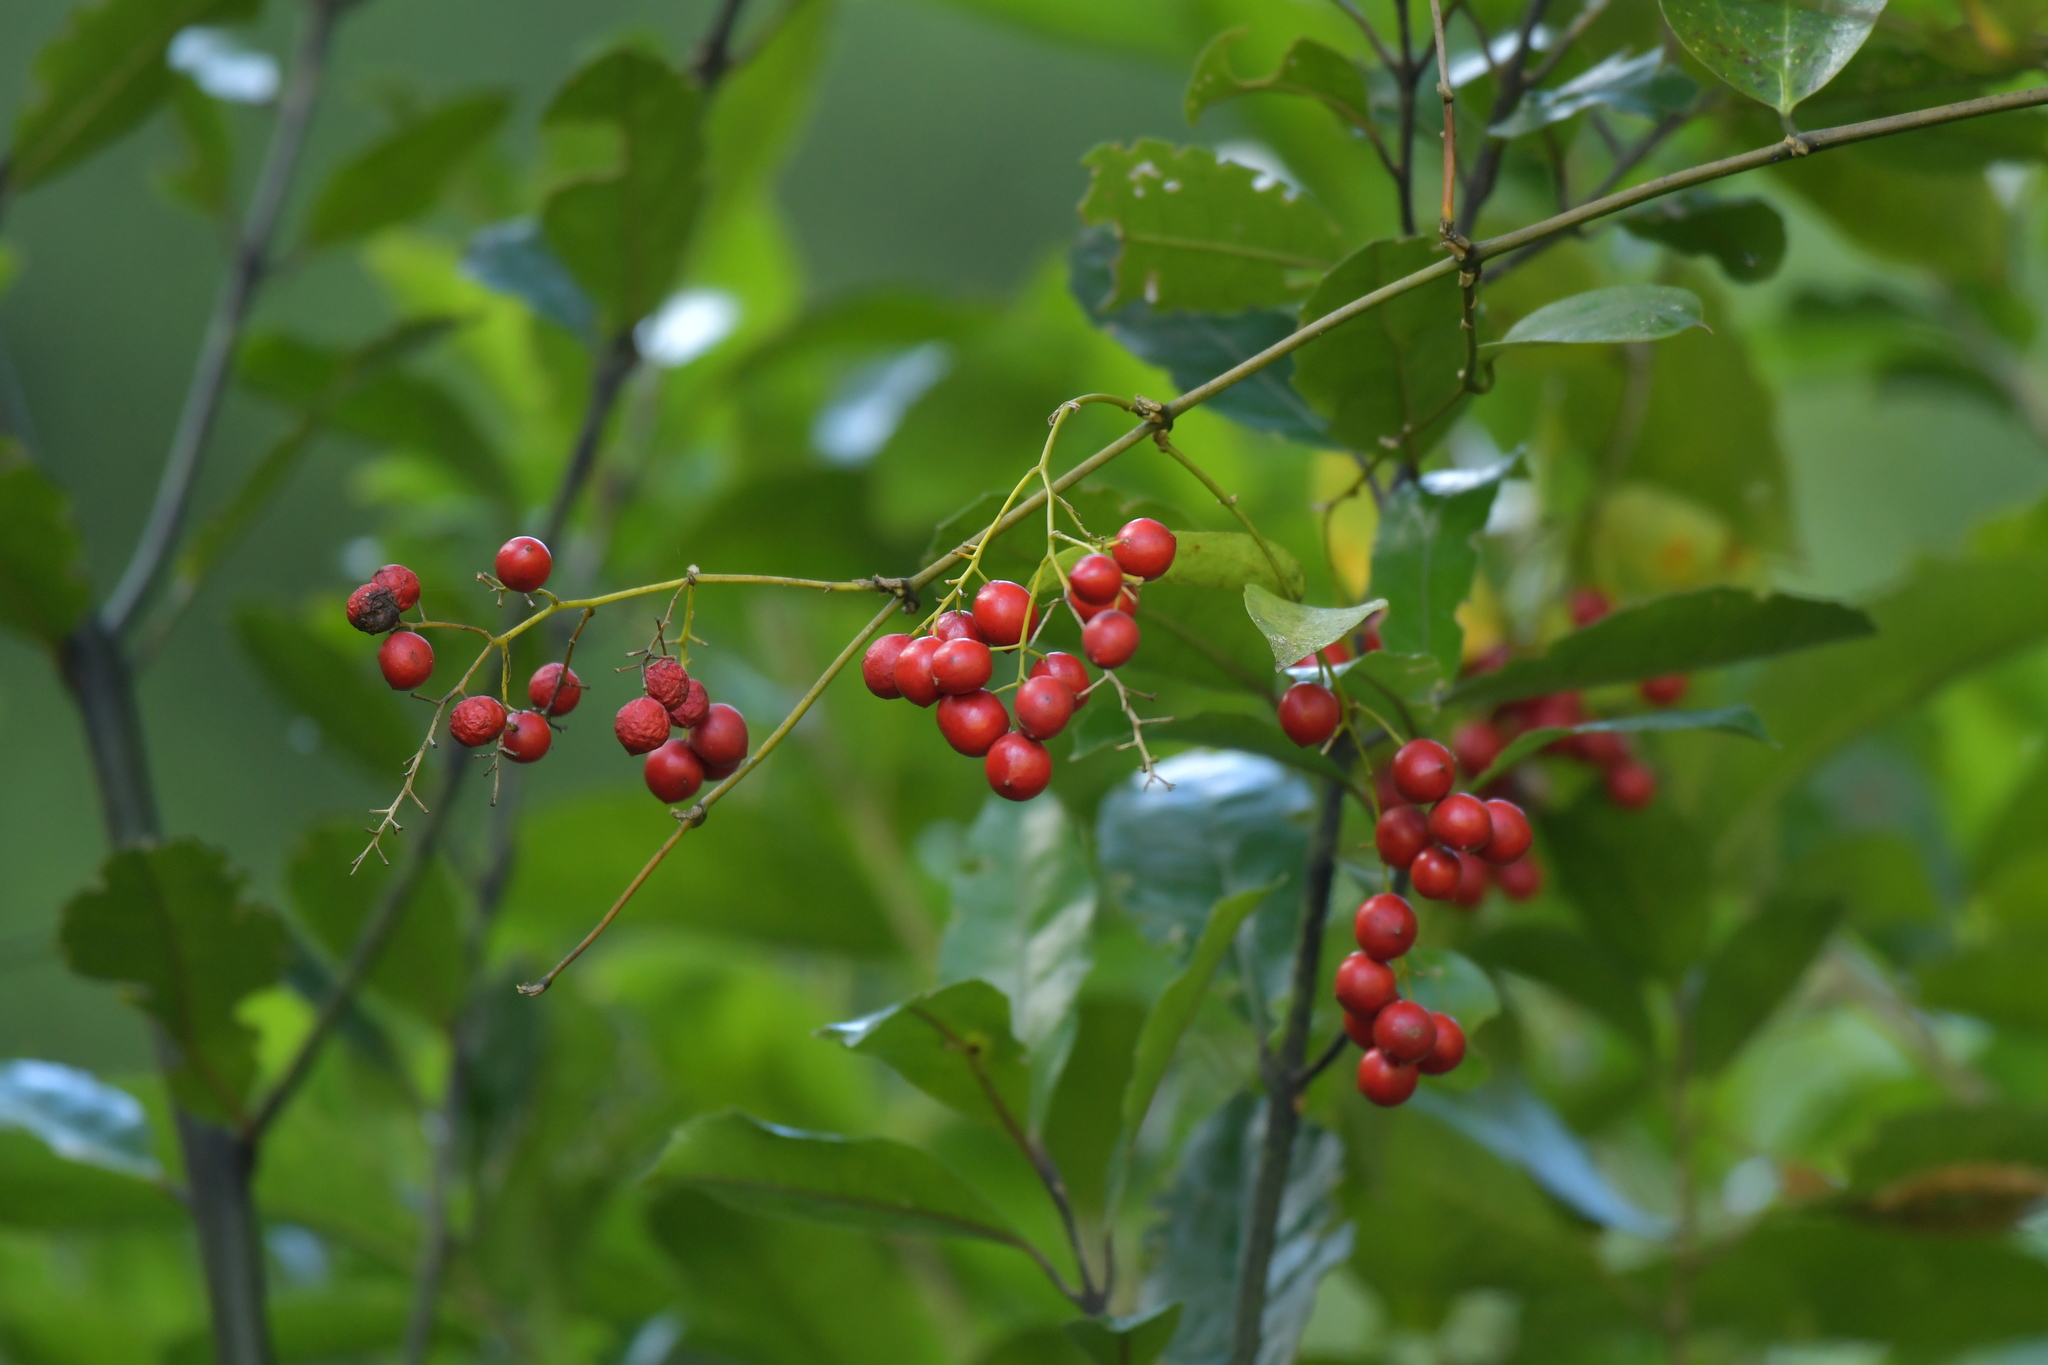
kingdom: Plantae
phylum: Tracheophyta
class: Liliopsida
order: Liliales
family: Ripogonaceae
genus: Ripogonum
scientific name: Ripogonum scandens
